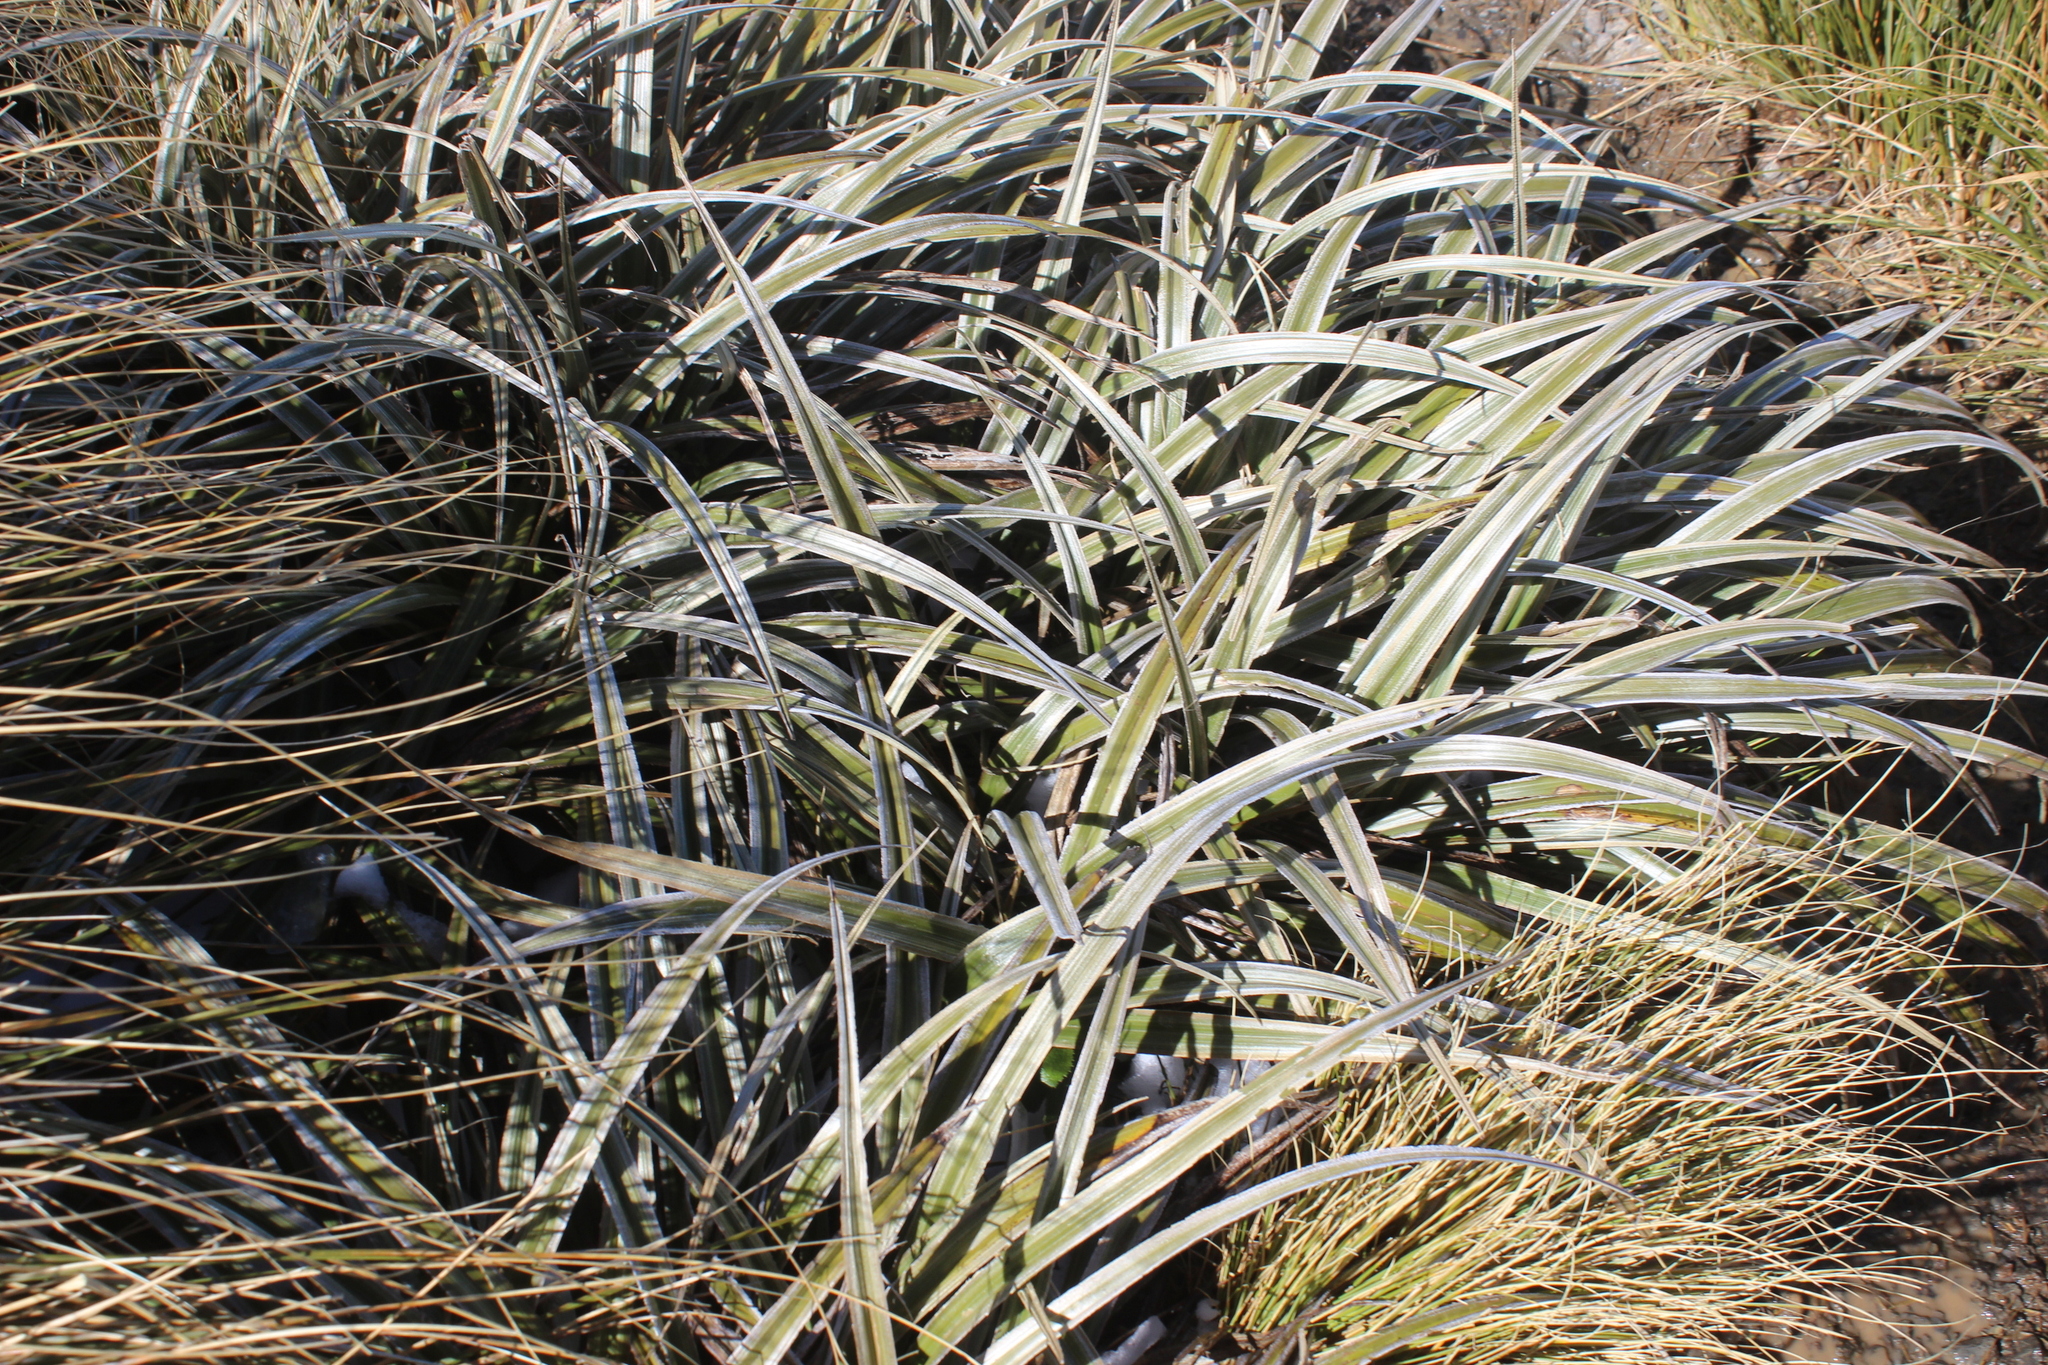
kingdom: Plantae
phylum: Tracheophyta
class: Liliopsida
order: Asparagales
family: Asteliaceae
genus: Astelia
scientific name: Astelia nervosa
